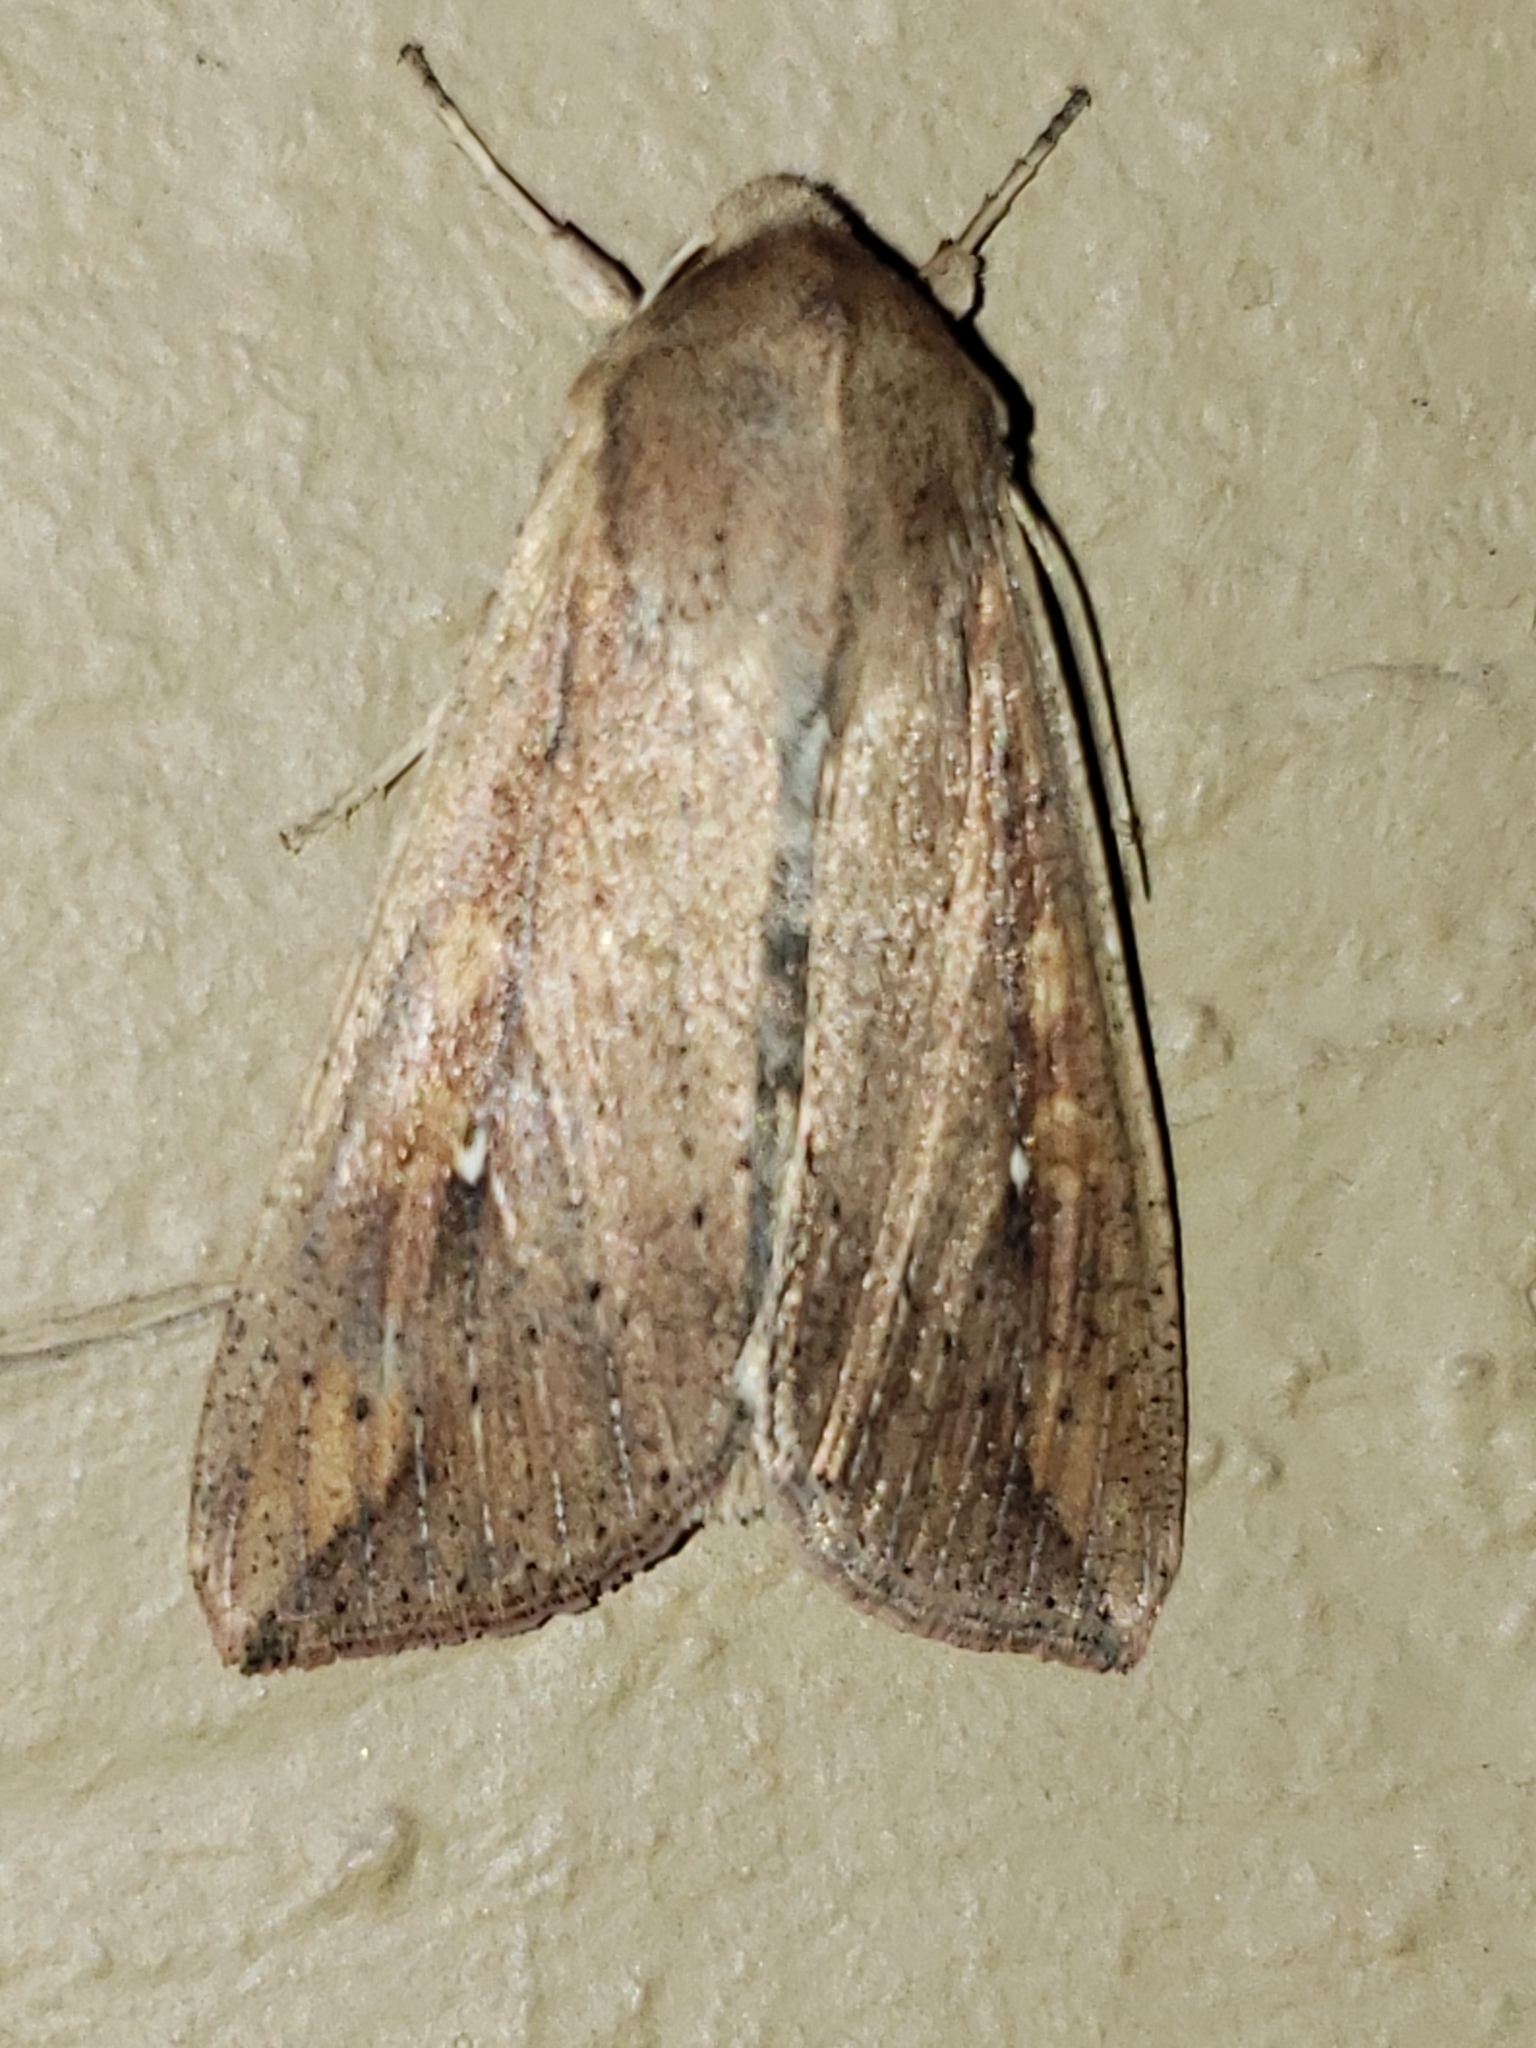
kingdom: Animalia
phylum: Arthropoda
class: Insecta
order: Lepidoptera
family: Noctuidae
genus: Mythimna
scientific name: Mythimna unipuncta
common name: White-speck
